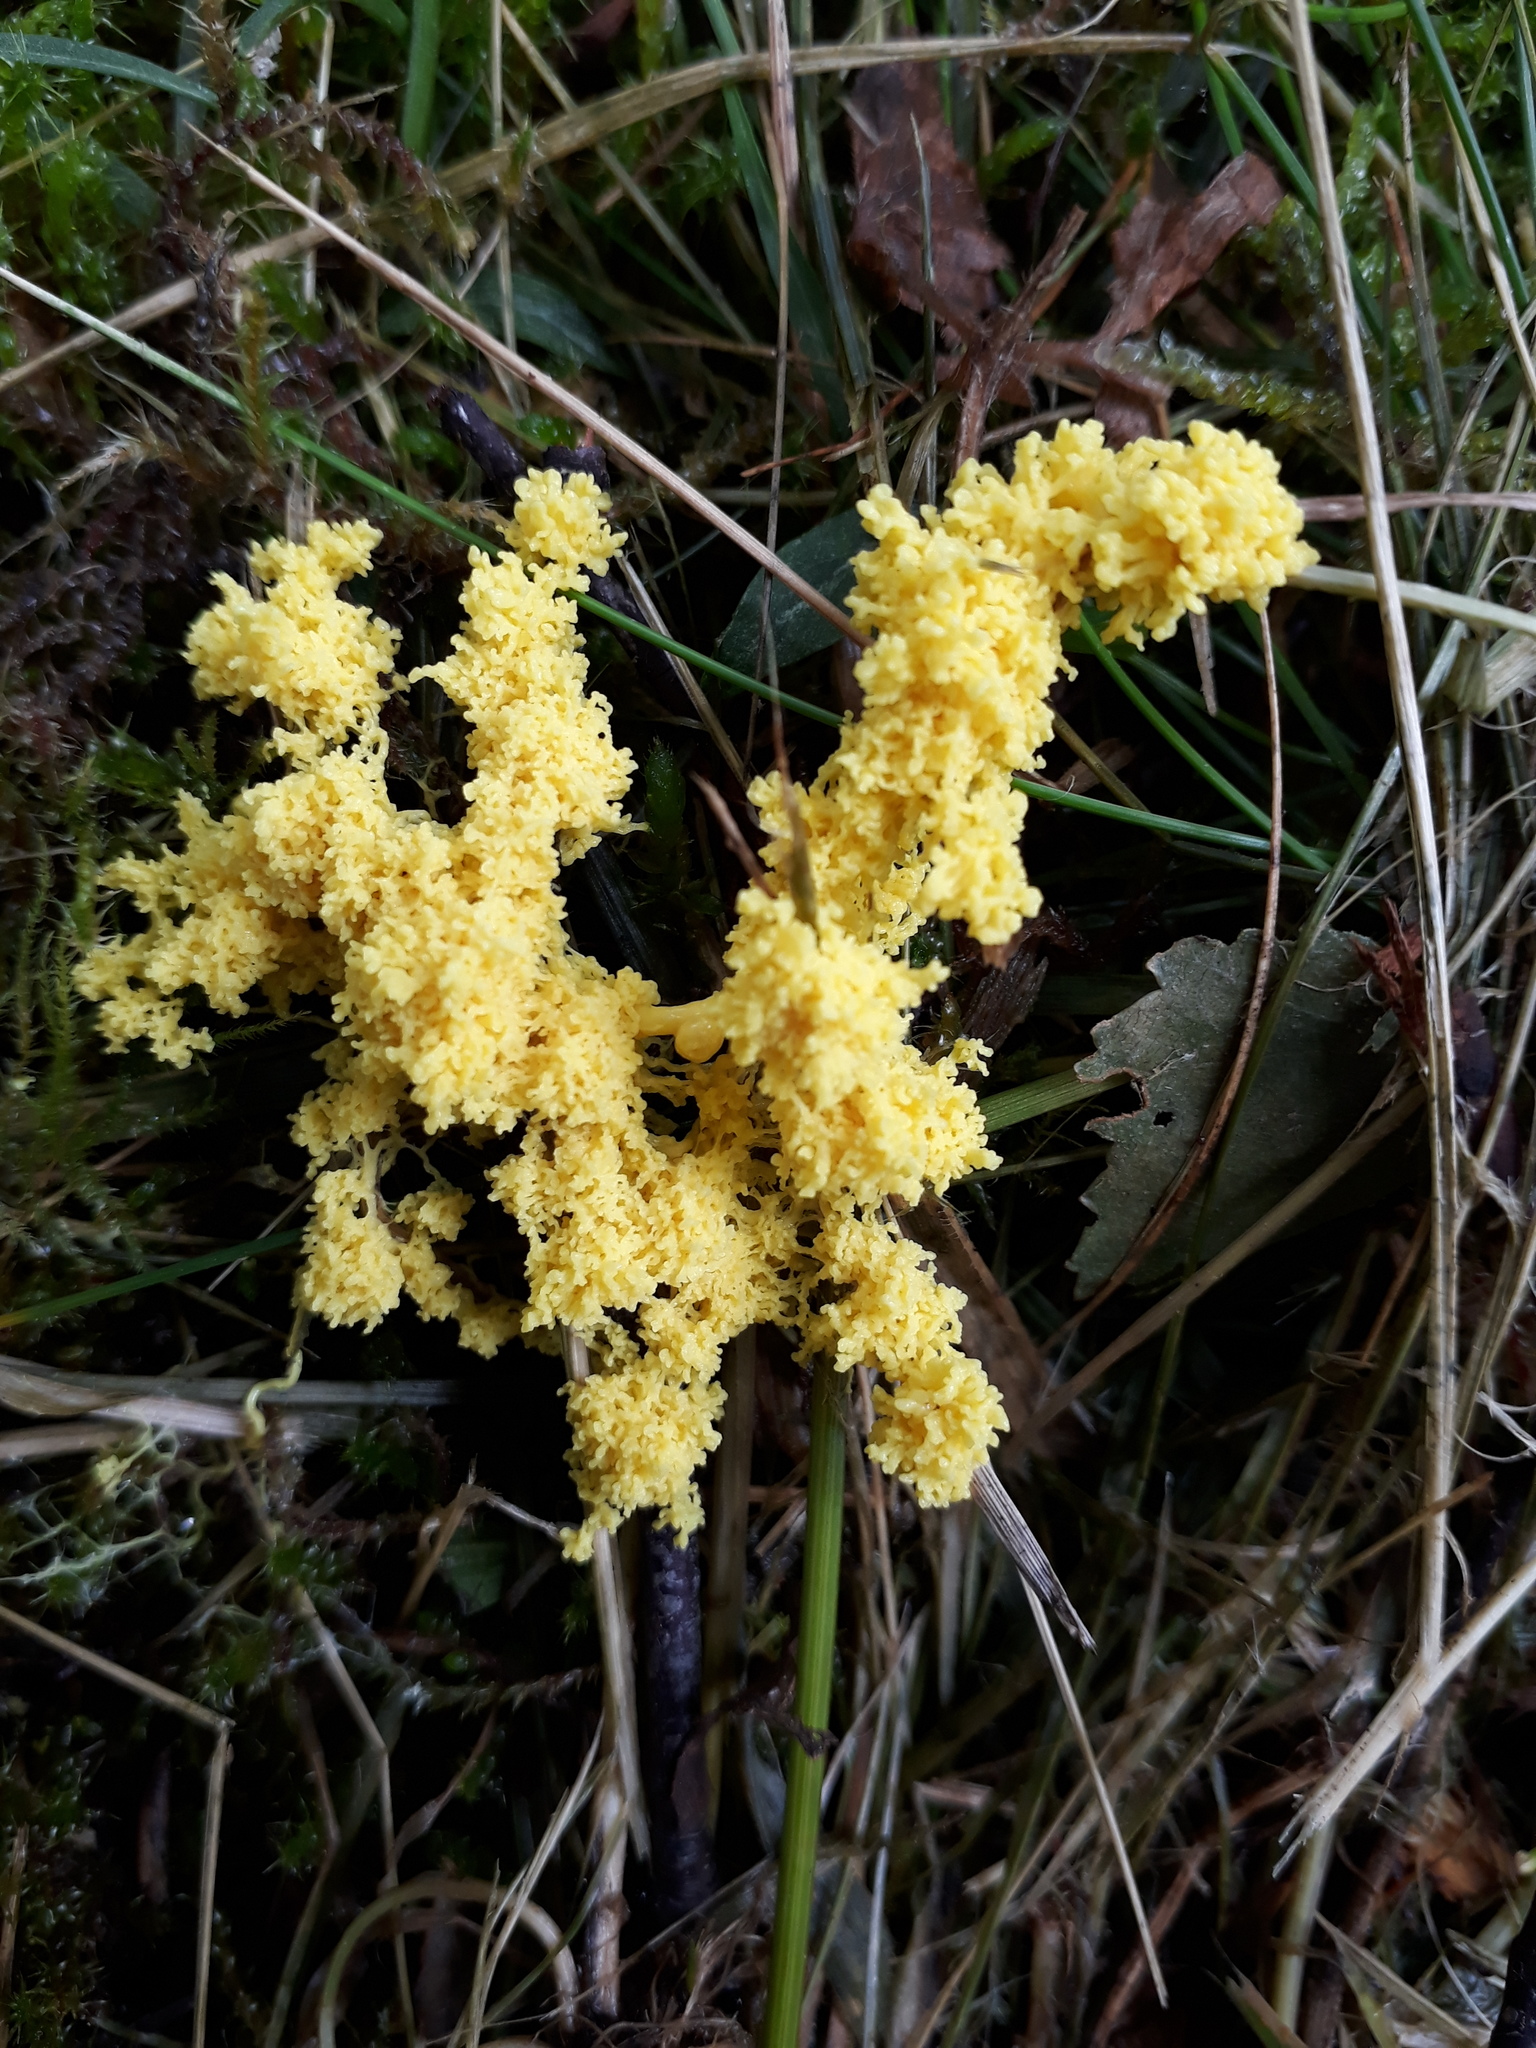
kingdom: Protozoa
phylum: Mycetozoa
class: Myxomycetes
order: Physarales
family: Physaraceae
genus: Fuligo
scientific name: Fuligo septica
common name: Dog vomit slime mold
